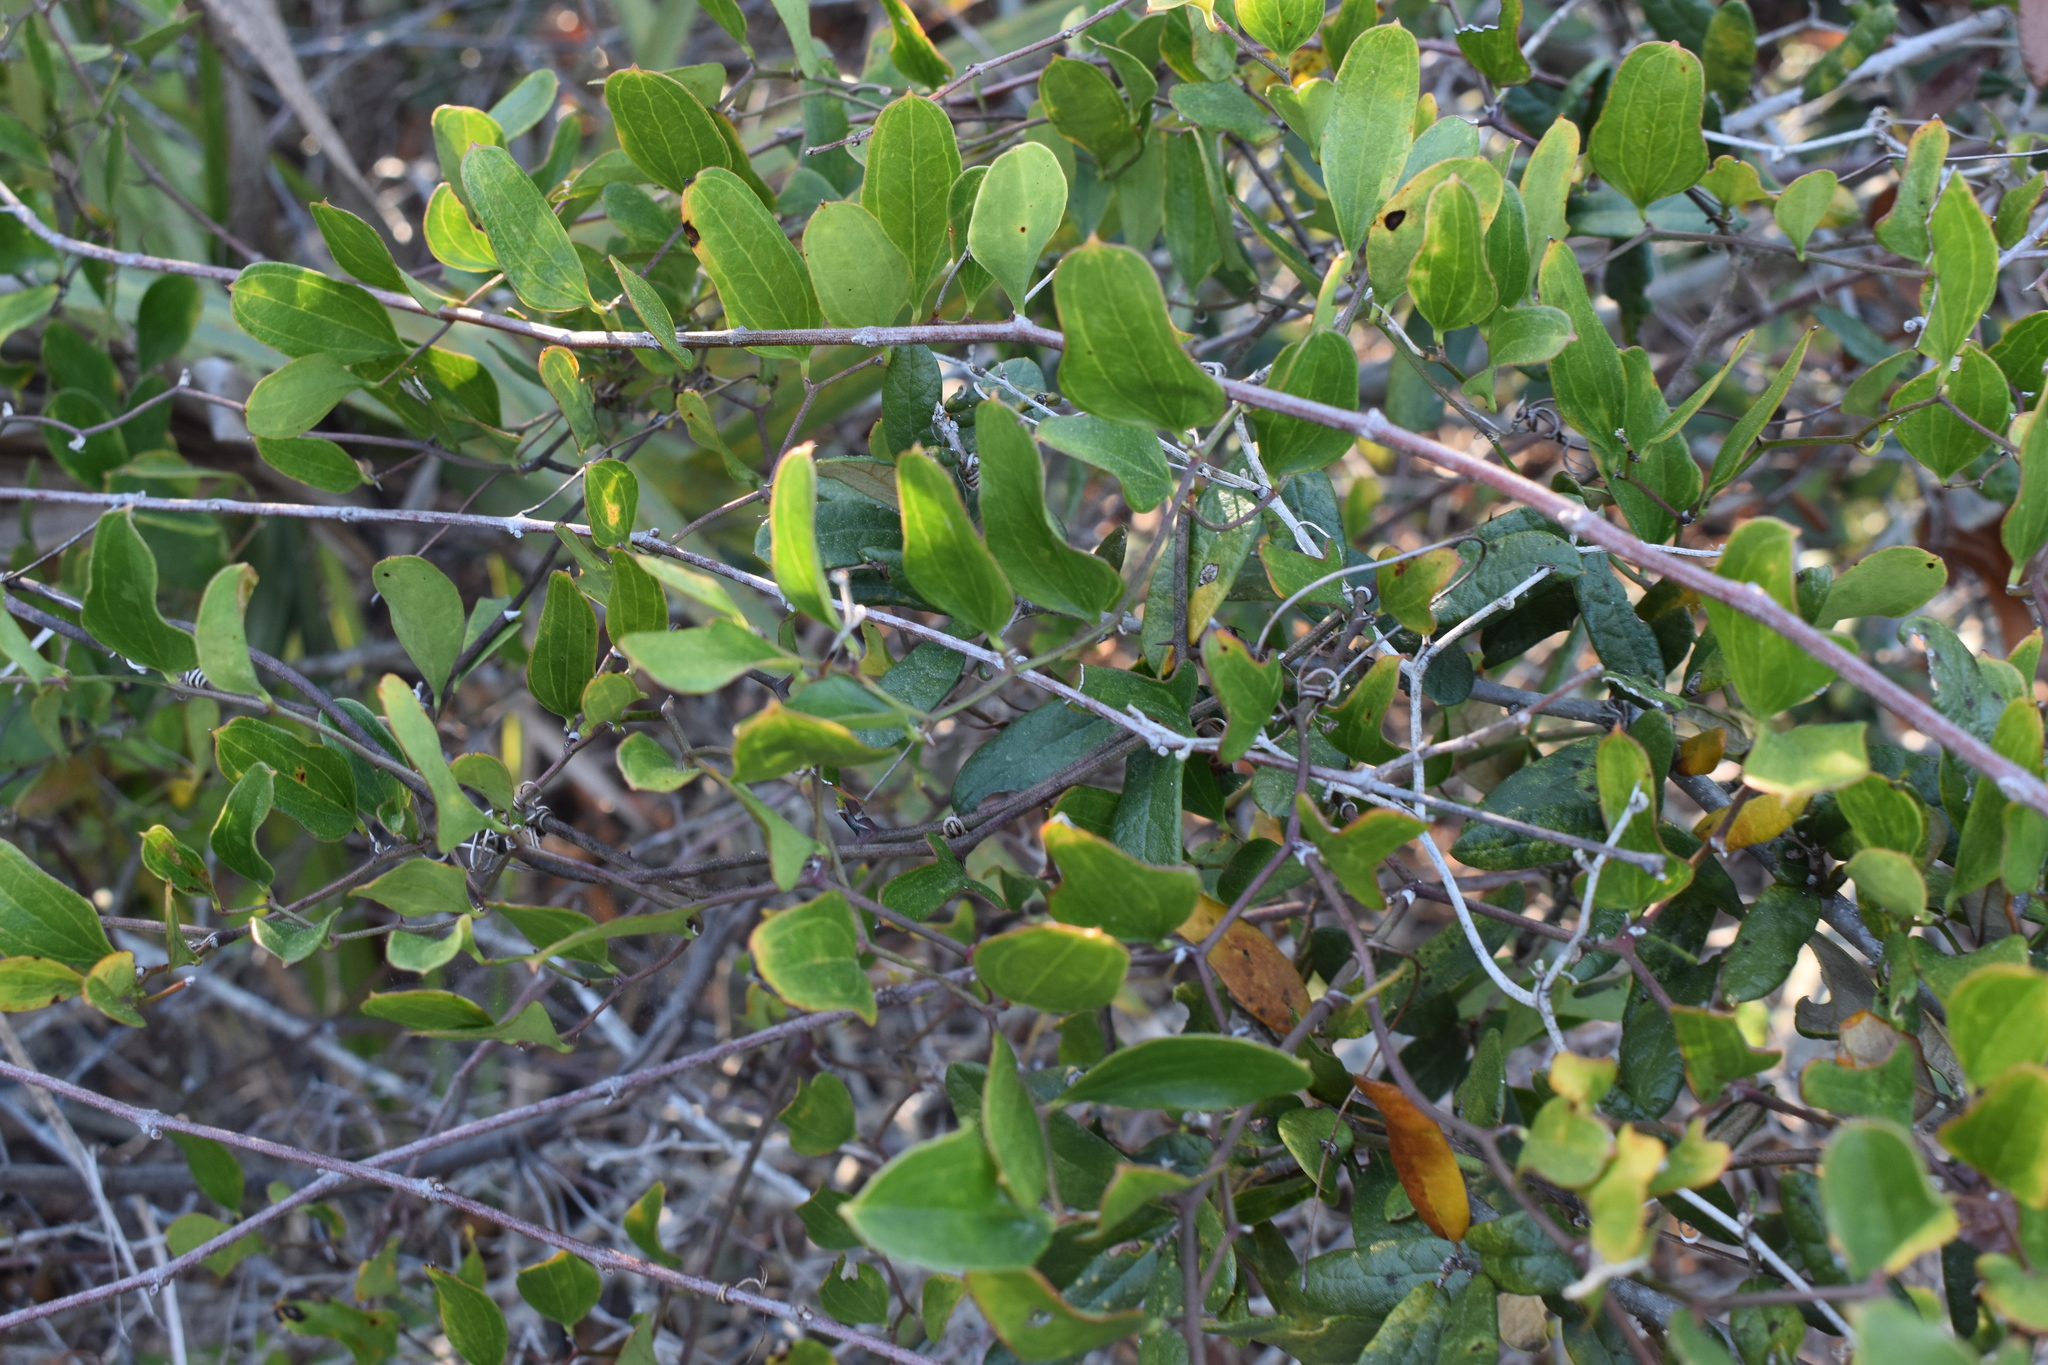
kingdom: Plantae
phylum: Tracheophyta
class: Liliopsida
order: Liliales
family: Smilacaceae
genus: Smilax
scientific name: Smilax auriculata
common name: Wild bamboo
